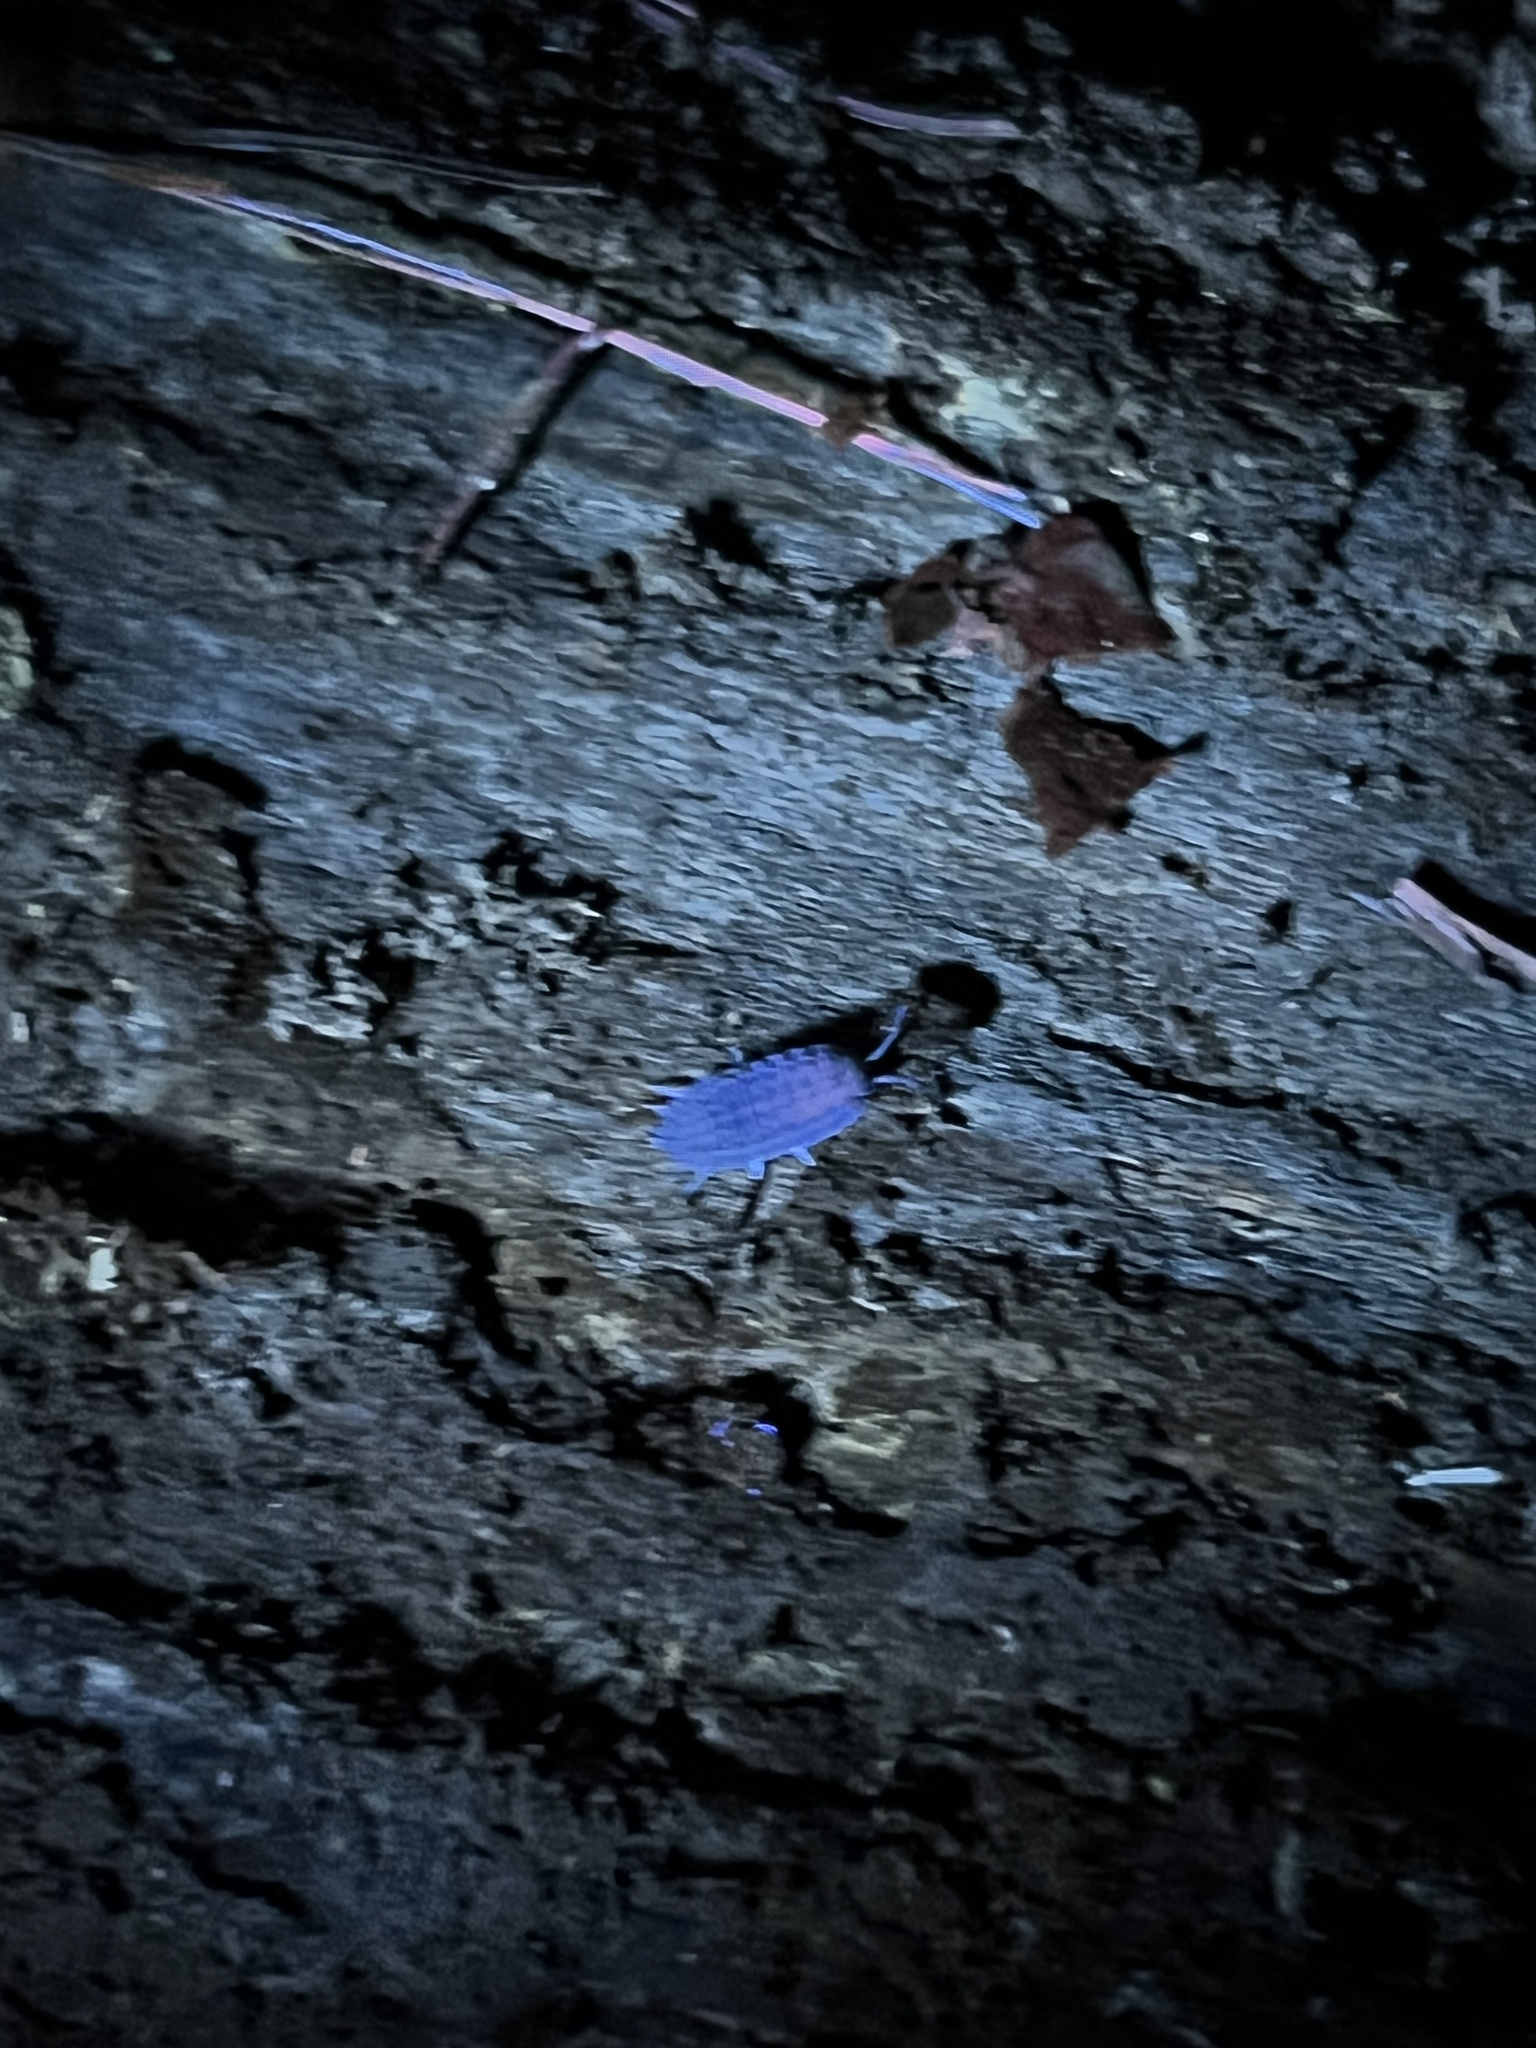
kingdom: Animalia
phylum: Arthropoda
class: Malacostraca
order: Isopoda
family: Trachelipodidae
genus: Trachelipus
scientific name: Trachelipus rathkii
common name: Isopod
